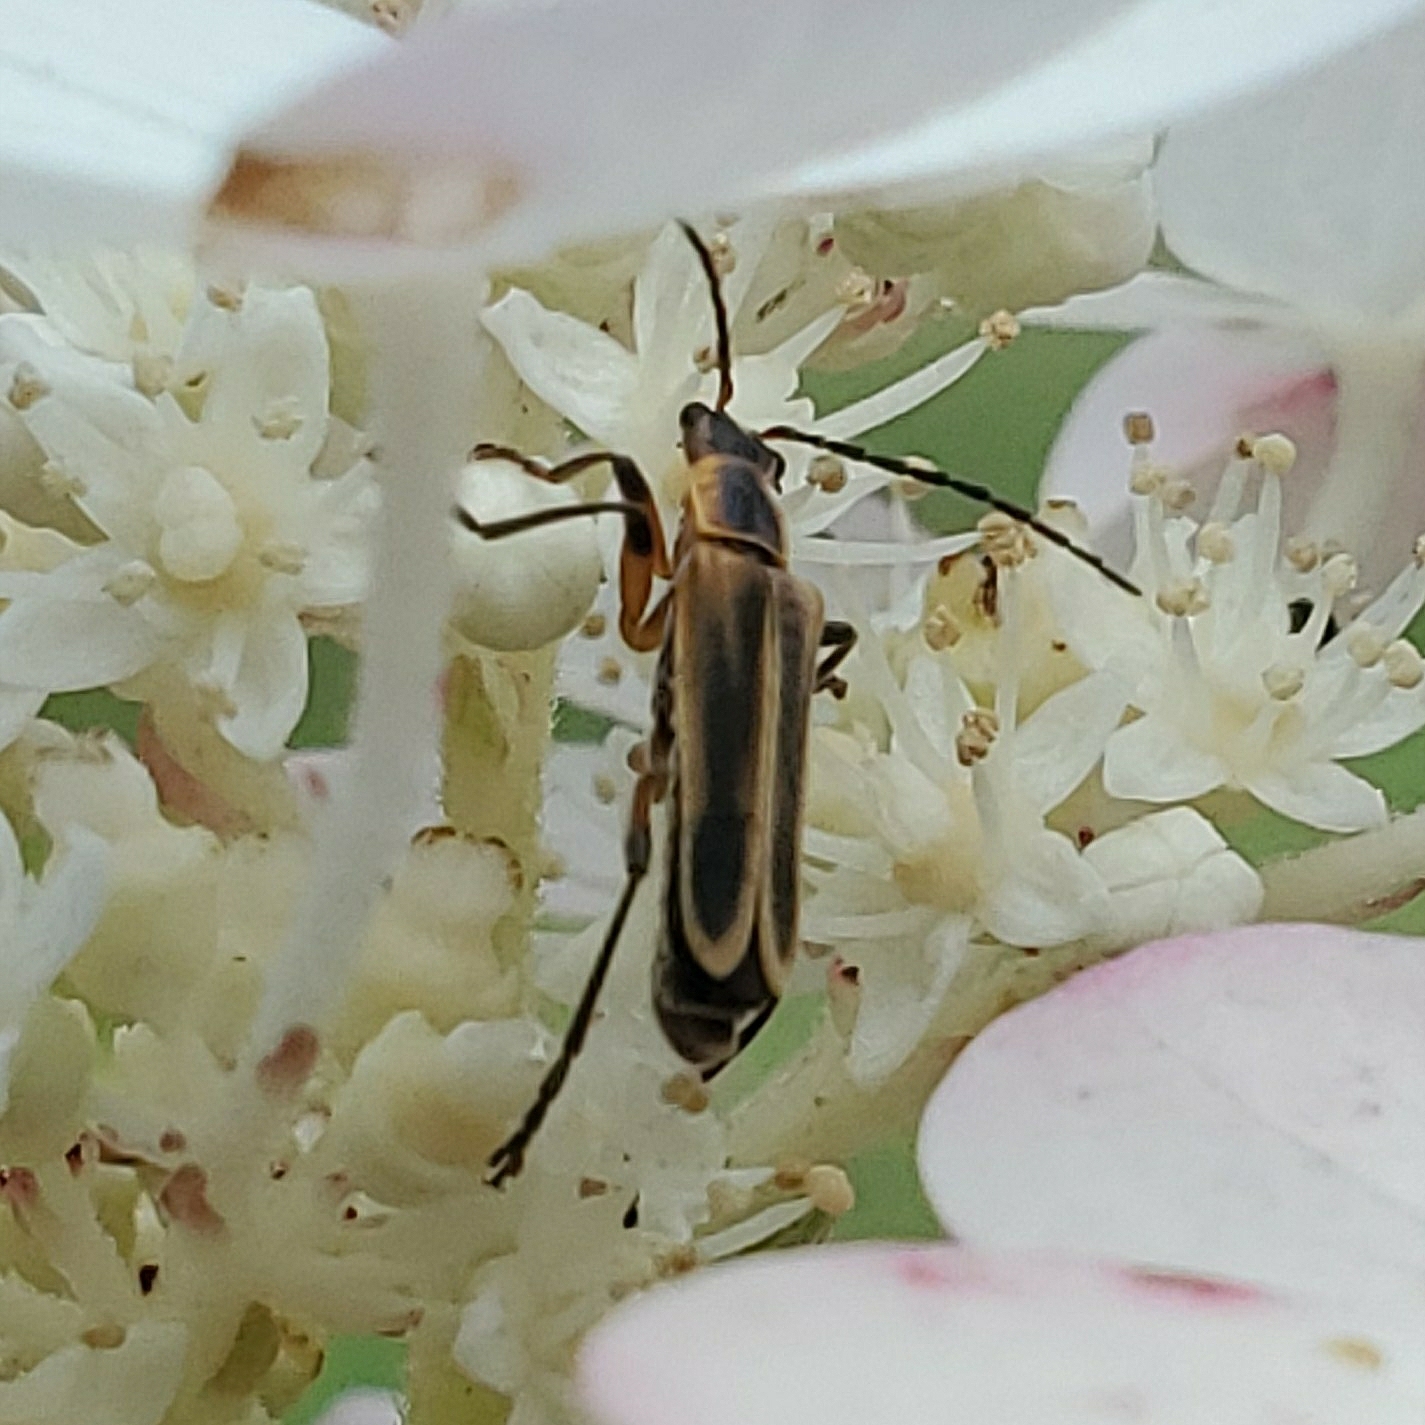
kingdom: Animalia
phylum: Arthropoda
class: Insecta
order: Coleoptera
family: Cantharidae
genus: Chauliognathus
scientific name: Chauliognathus marginatus
